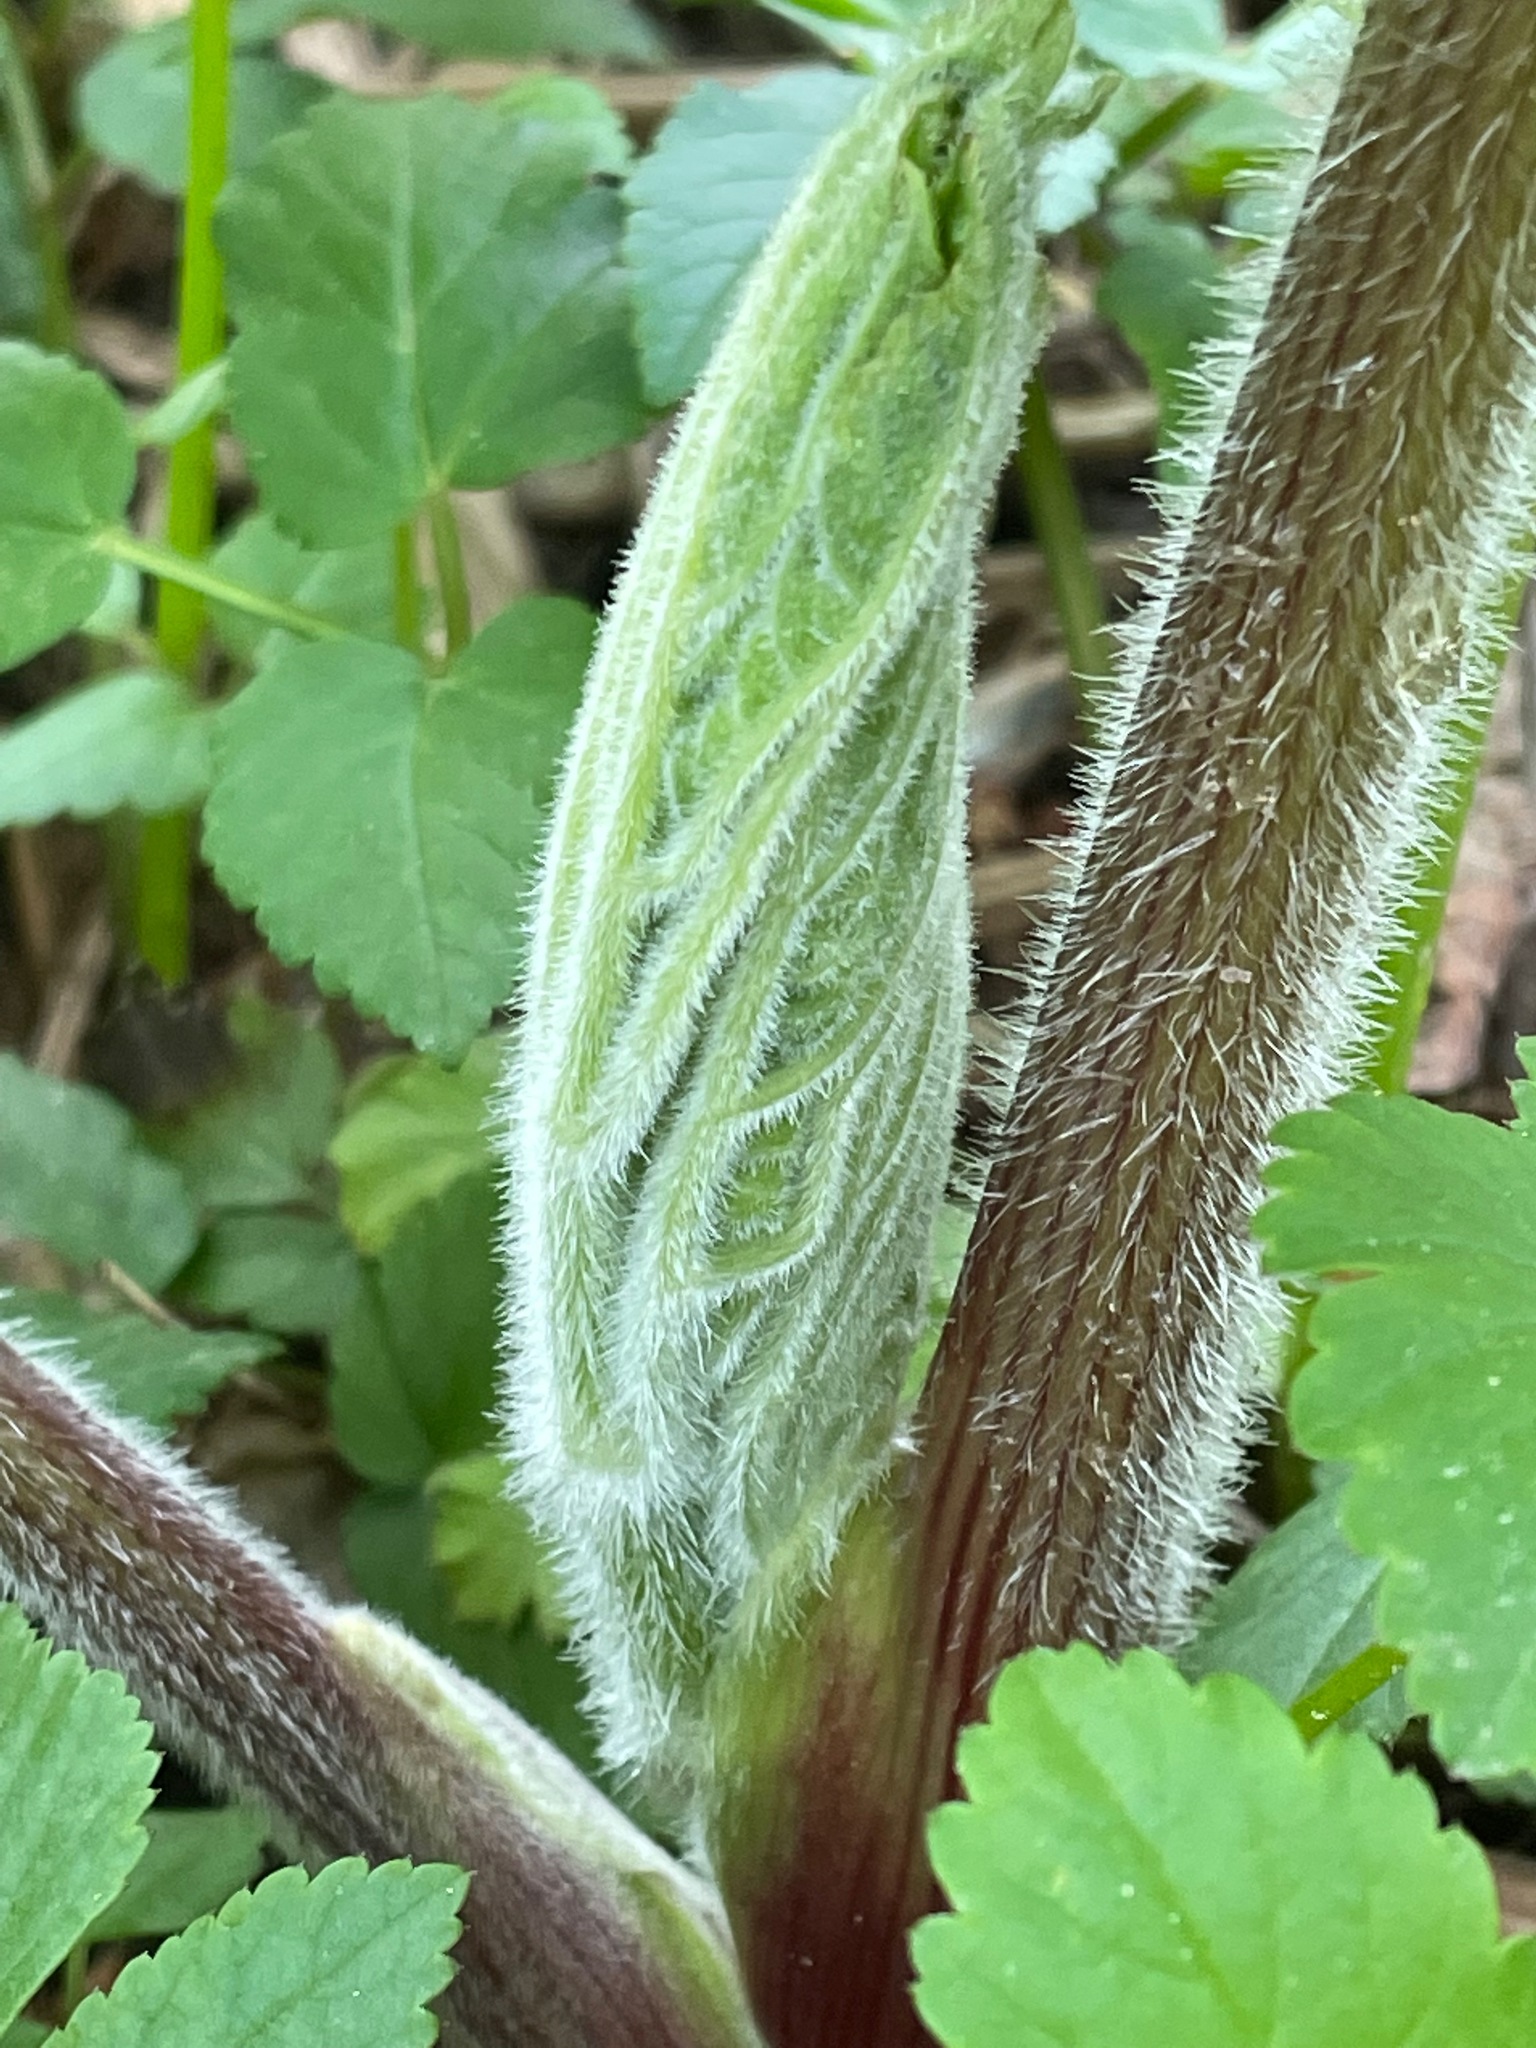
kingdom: Plantae
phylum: Tracheophyta
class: Magnoliopsida
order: Apiales
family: Apiaceae
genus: Heracleum
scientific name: Heracleum maximum
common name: American cow parsnip
